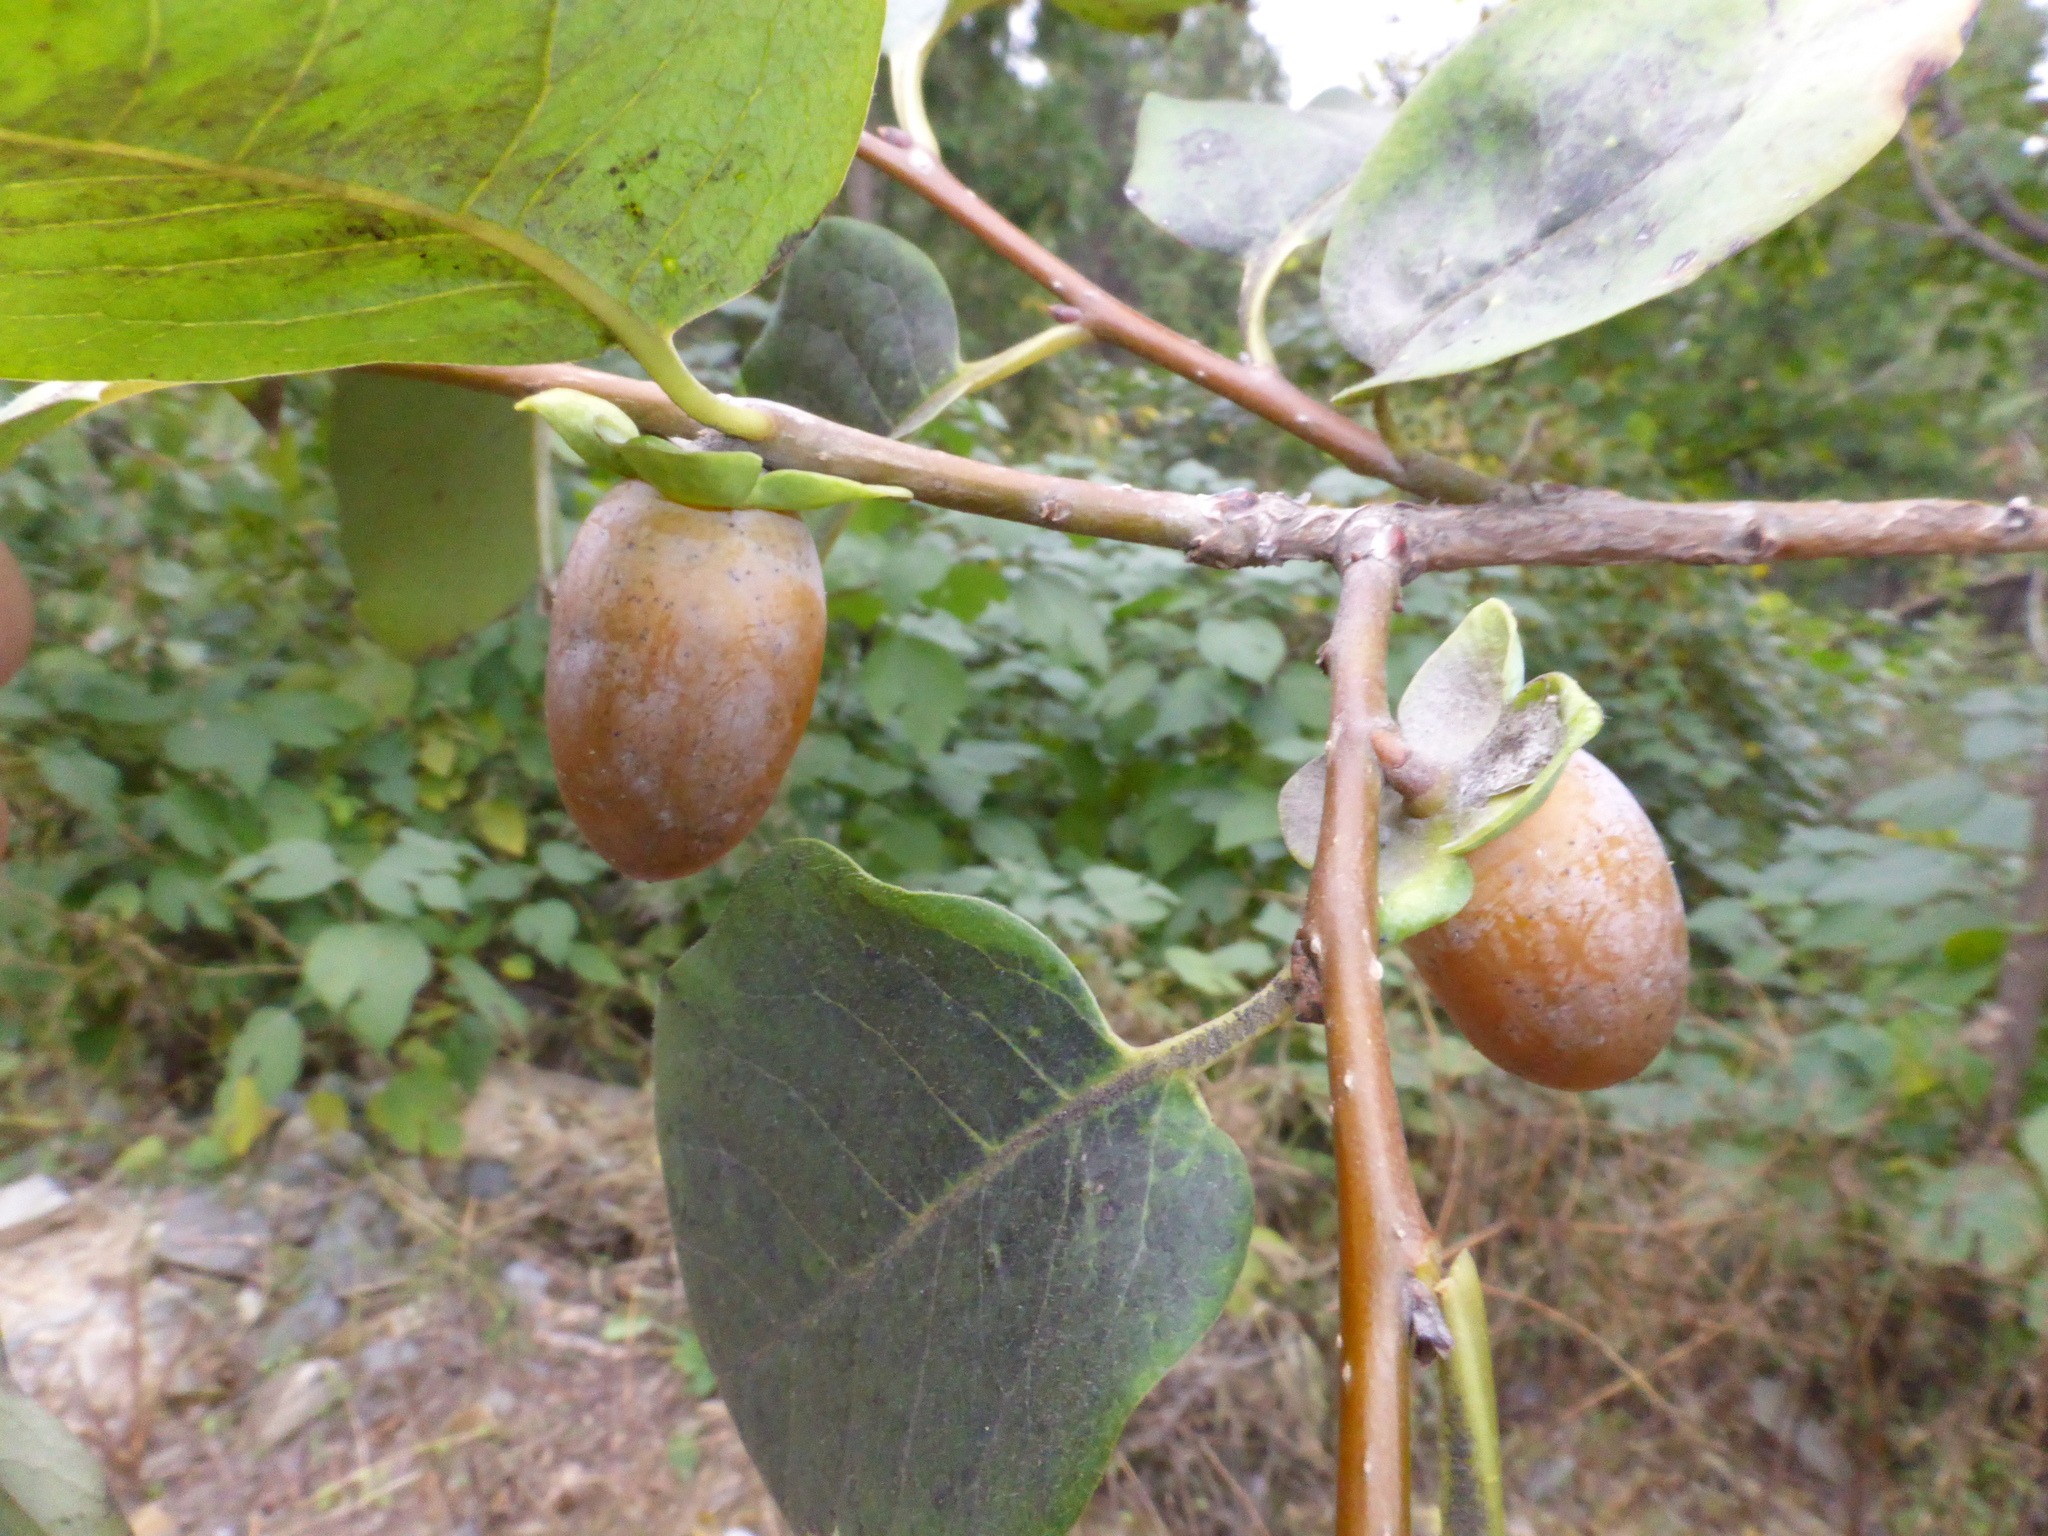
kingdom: Plantae
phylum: Tracheophyta
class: Magnoliopsida
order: Ericales
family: Ebenaceae
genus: Diospyros
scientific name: Diospyros lotus
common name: Date-plum
